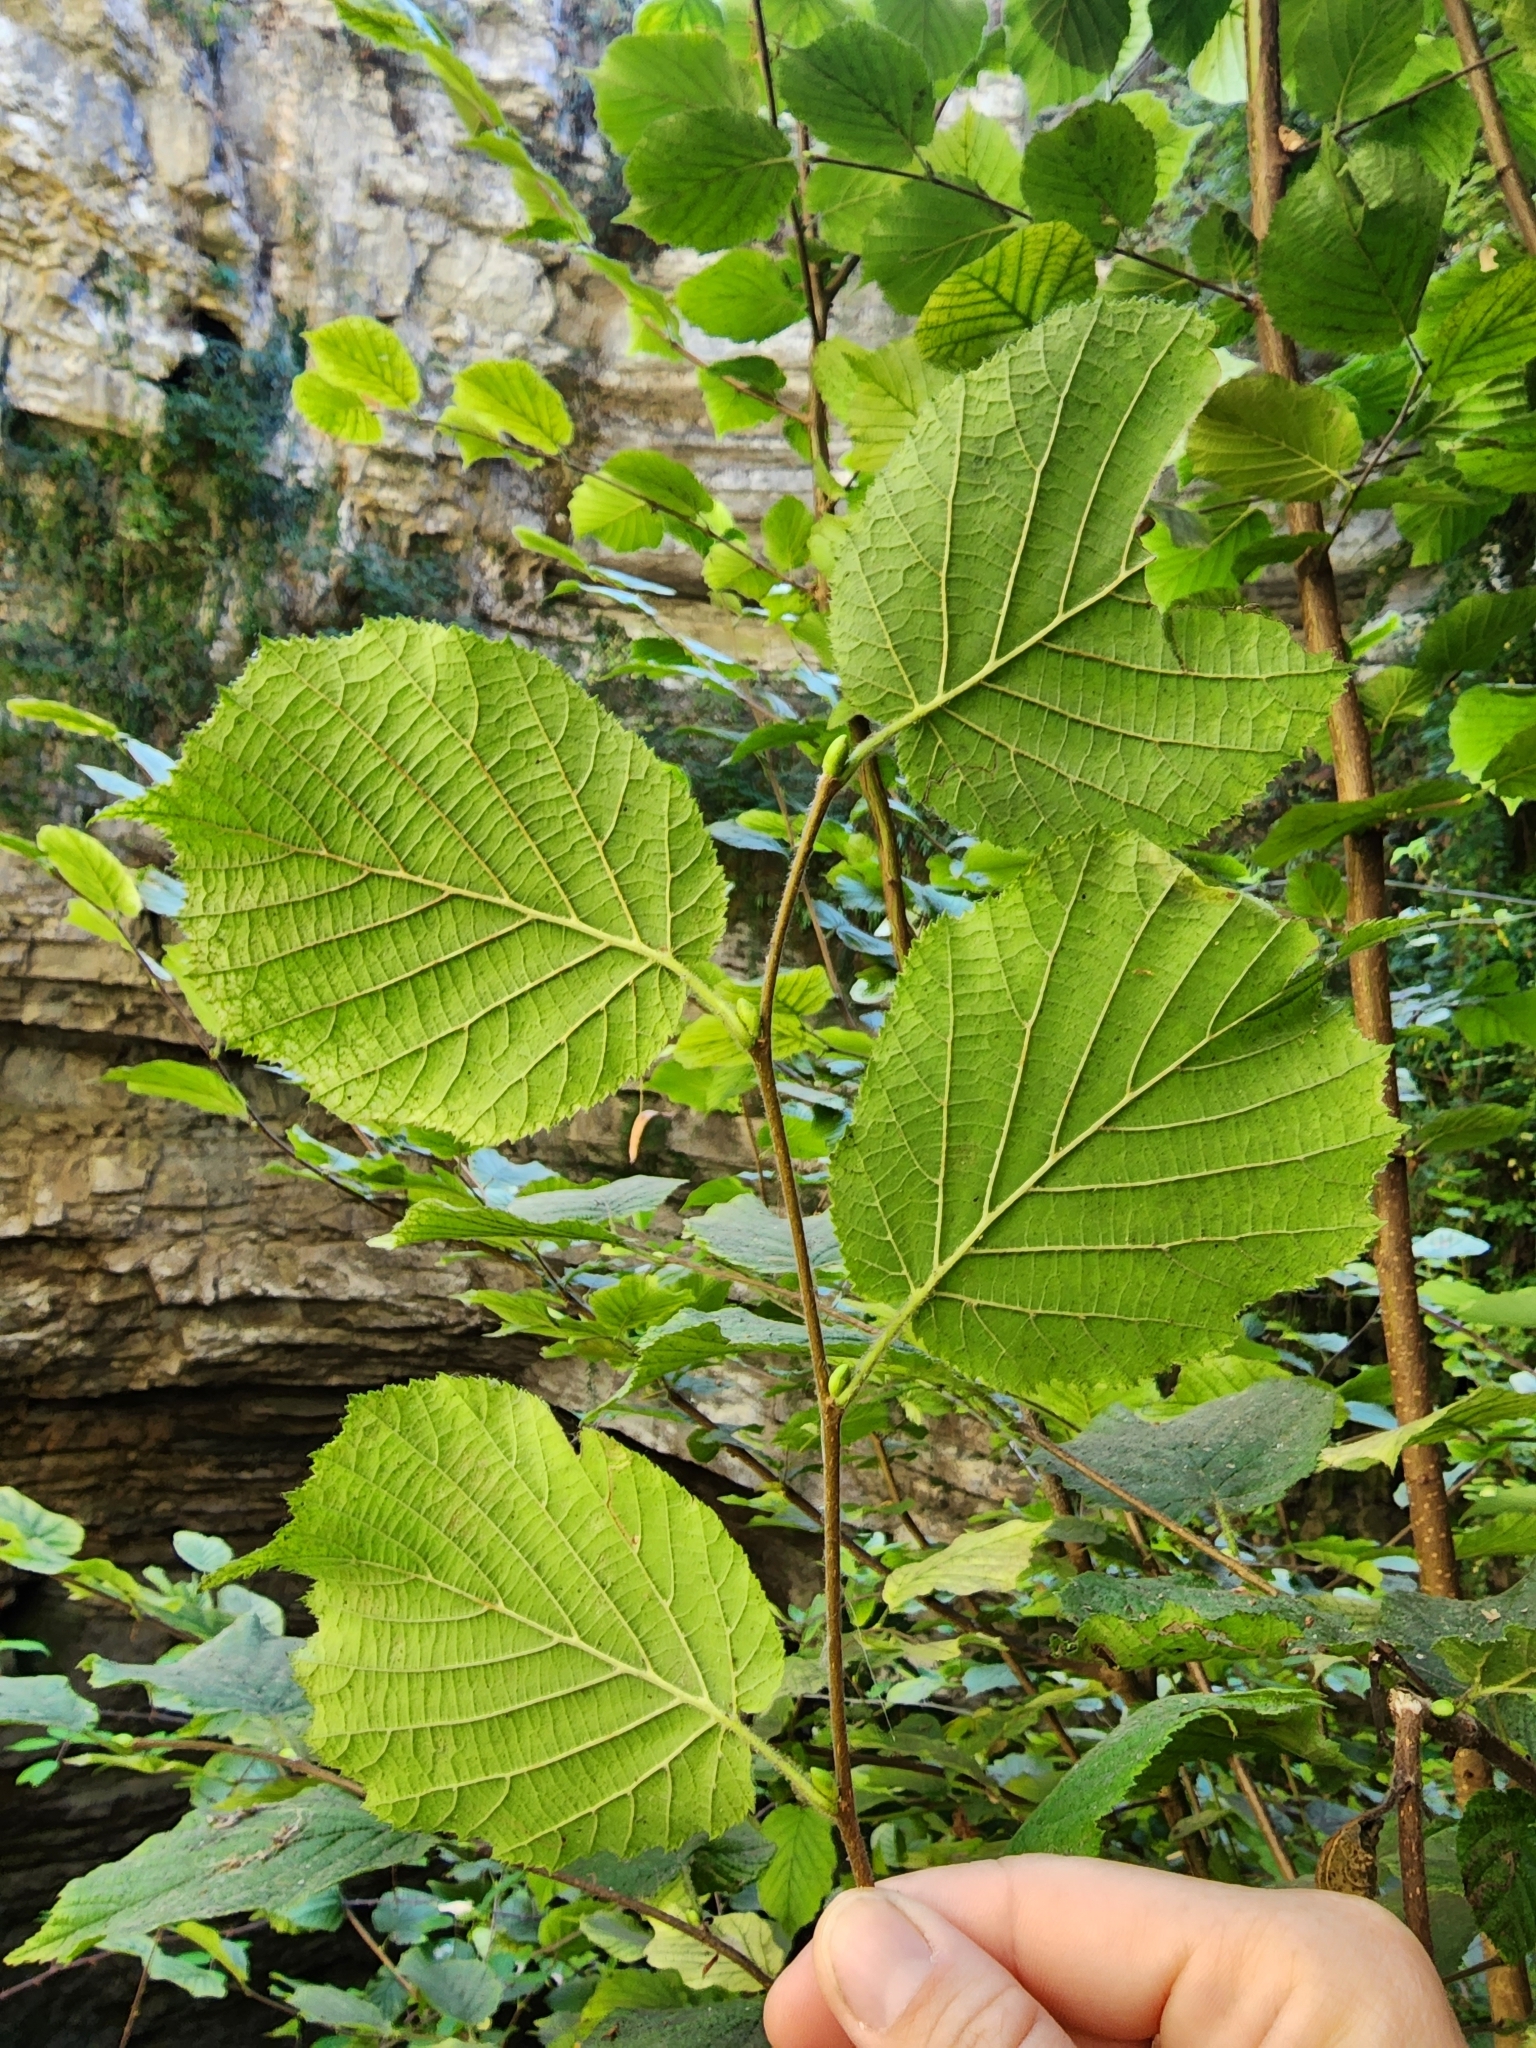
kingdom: Plantae
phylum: Tracheophyta
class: Magnoliopsida
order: Fagales
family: Betulaceae
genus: Corylus
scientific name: Corylus avellana
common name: European hazel
